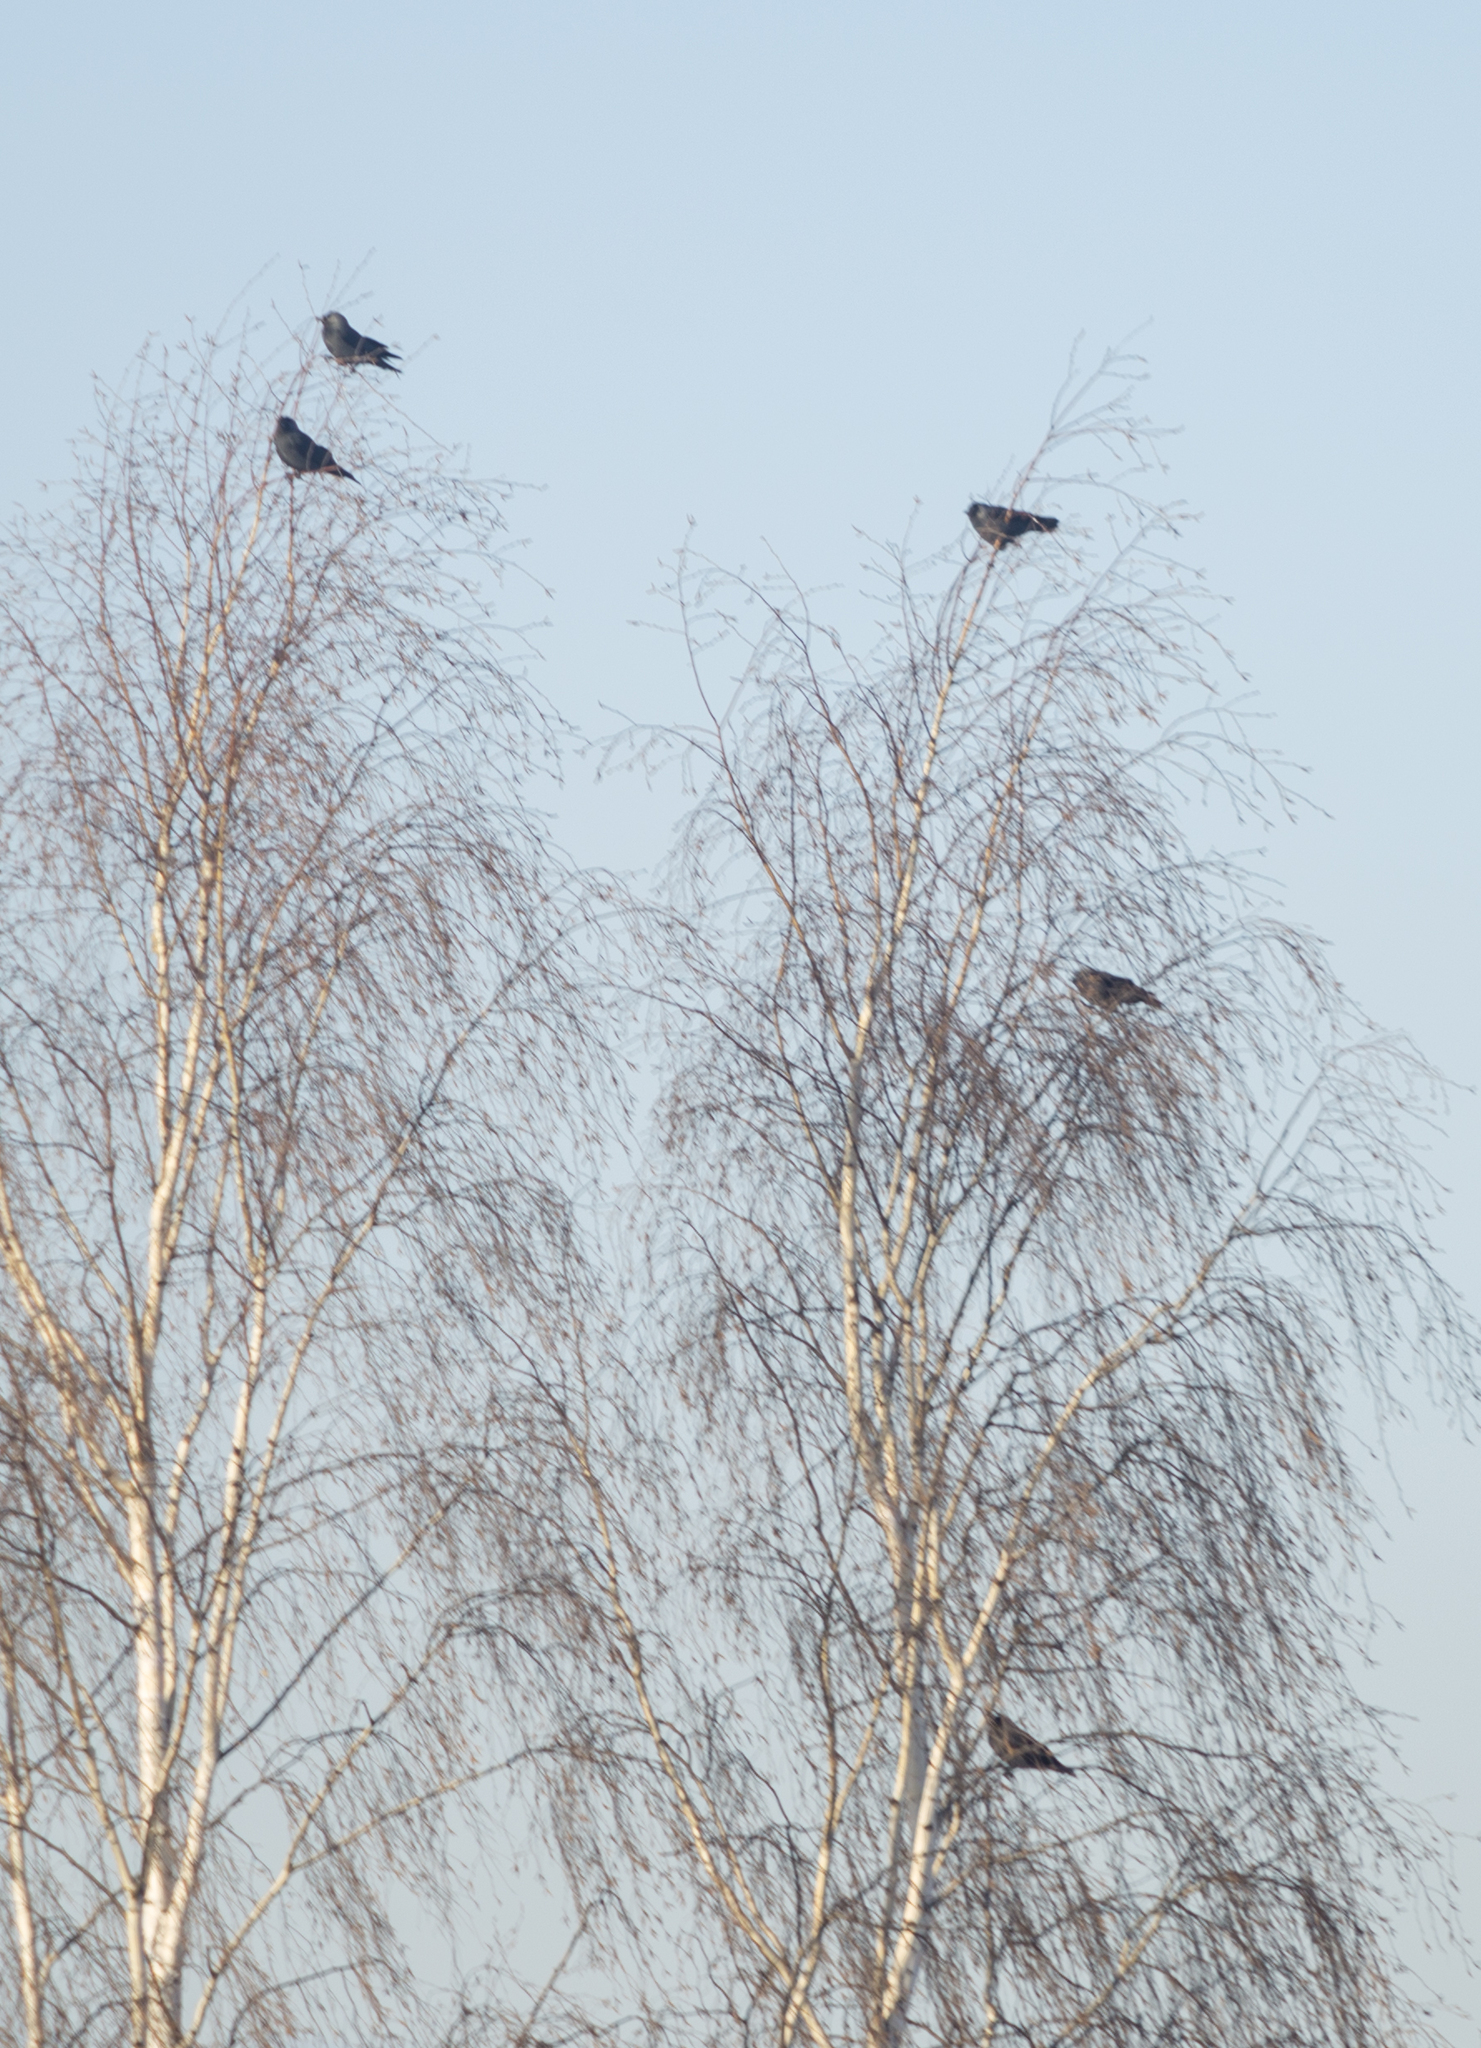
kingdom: Animalia
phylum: Chordata
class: Aves
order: Passeriformes
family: Corvidae
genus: Coloeus
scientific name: Coloeus monedula
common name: Western jackdaw
